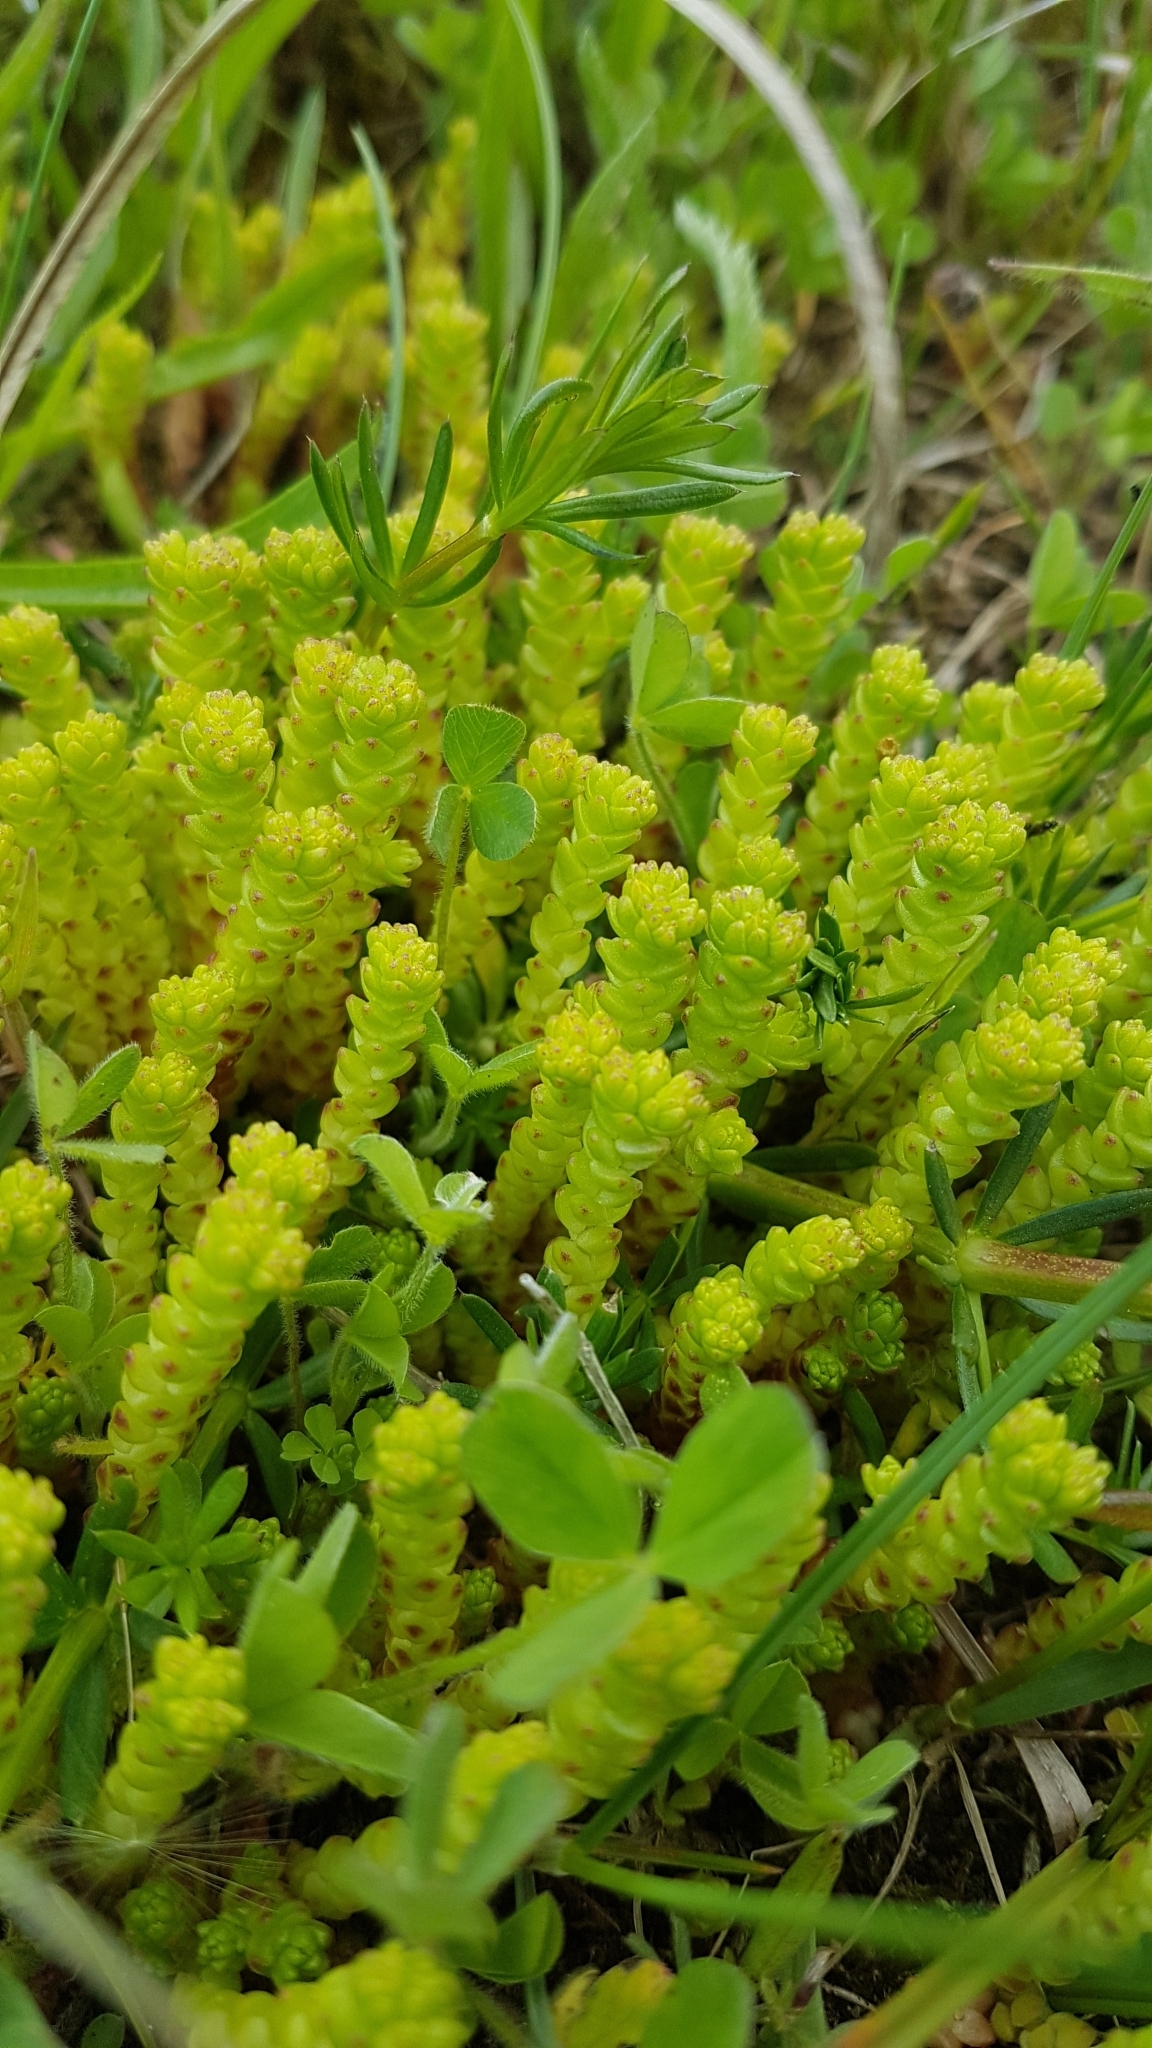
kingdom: Plantae
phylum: Tracheophyta
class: Magnoliopsida
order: Saxifragales
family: Crassulaceae
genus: Sedum
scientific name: Sedum acre
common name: Biting stonecrop
